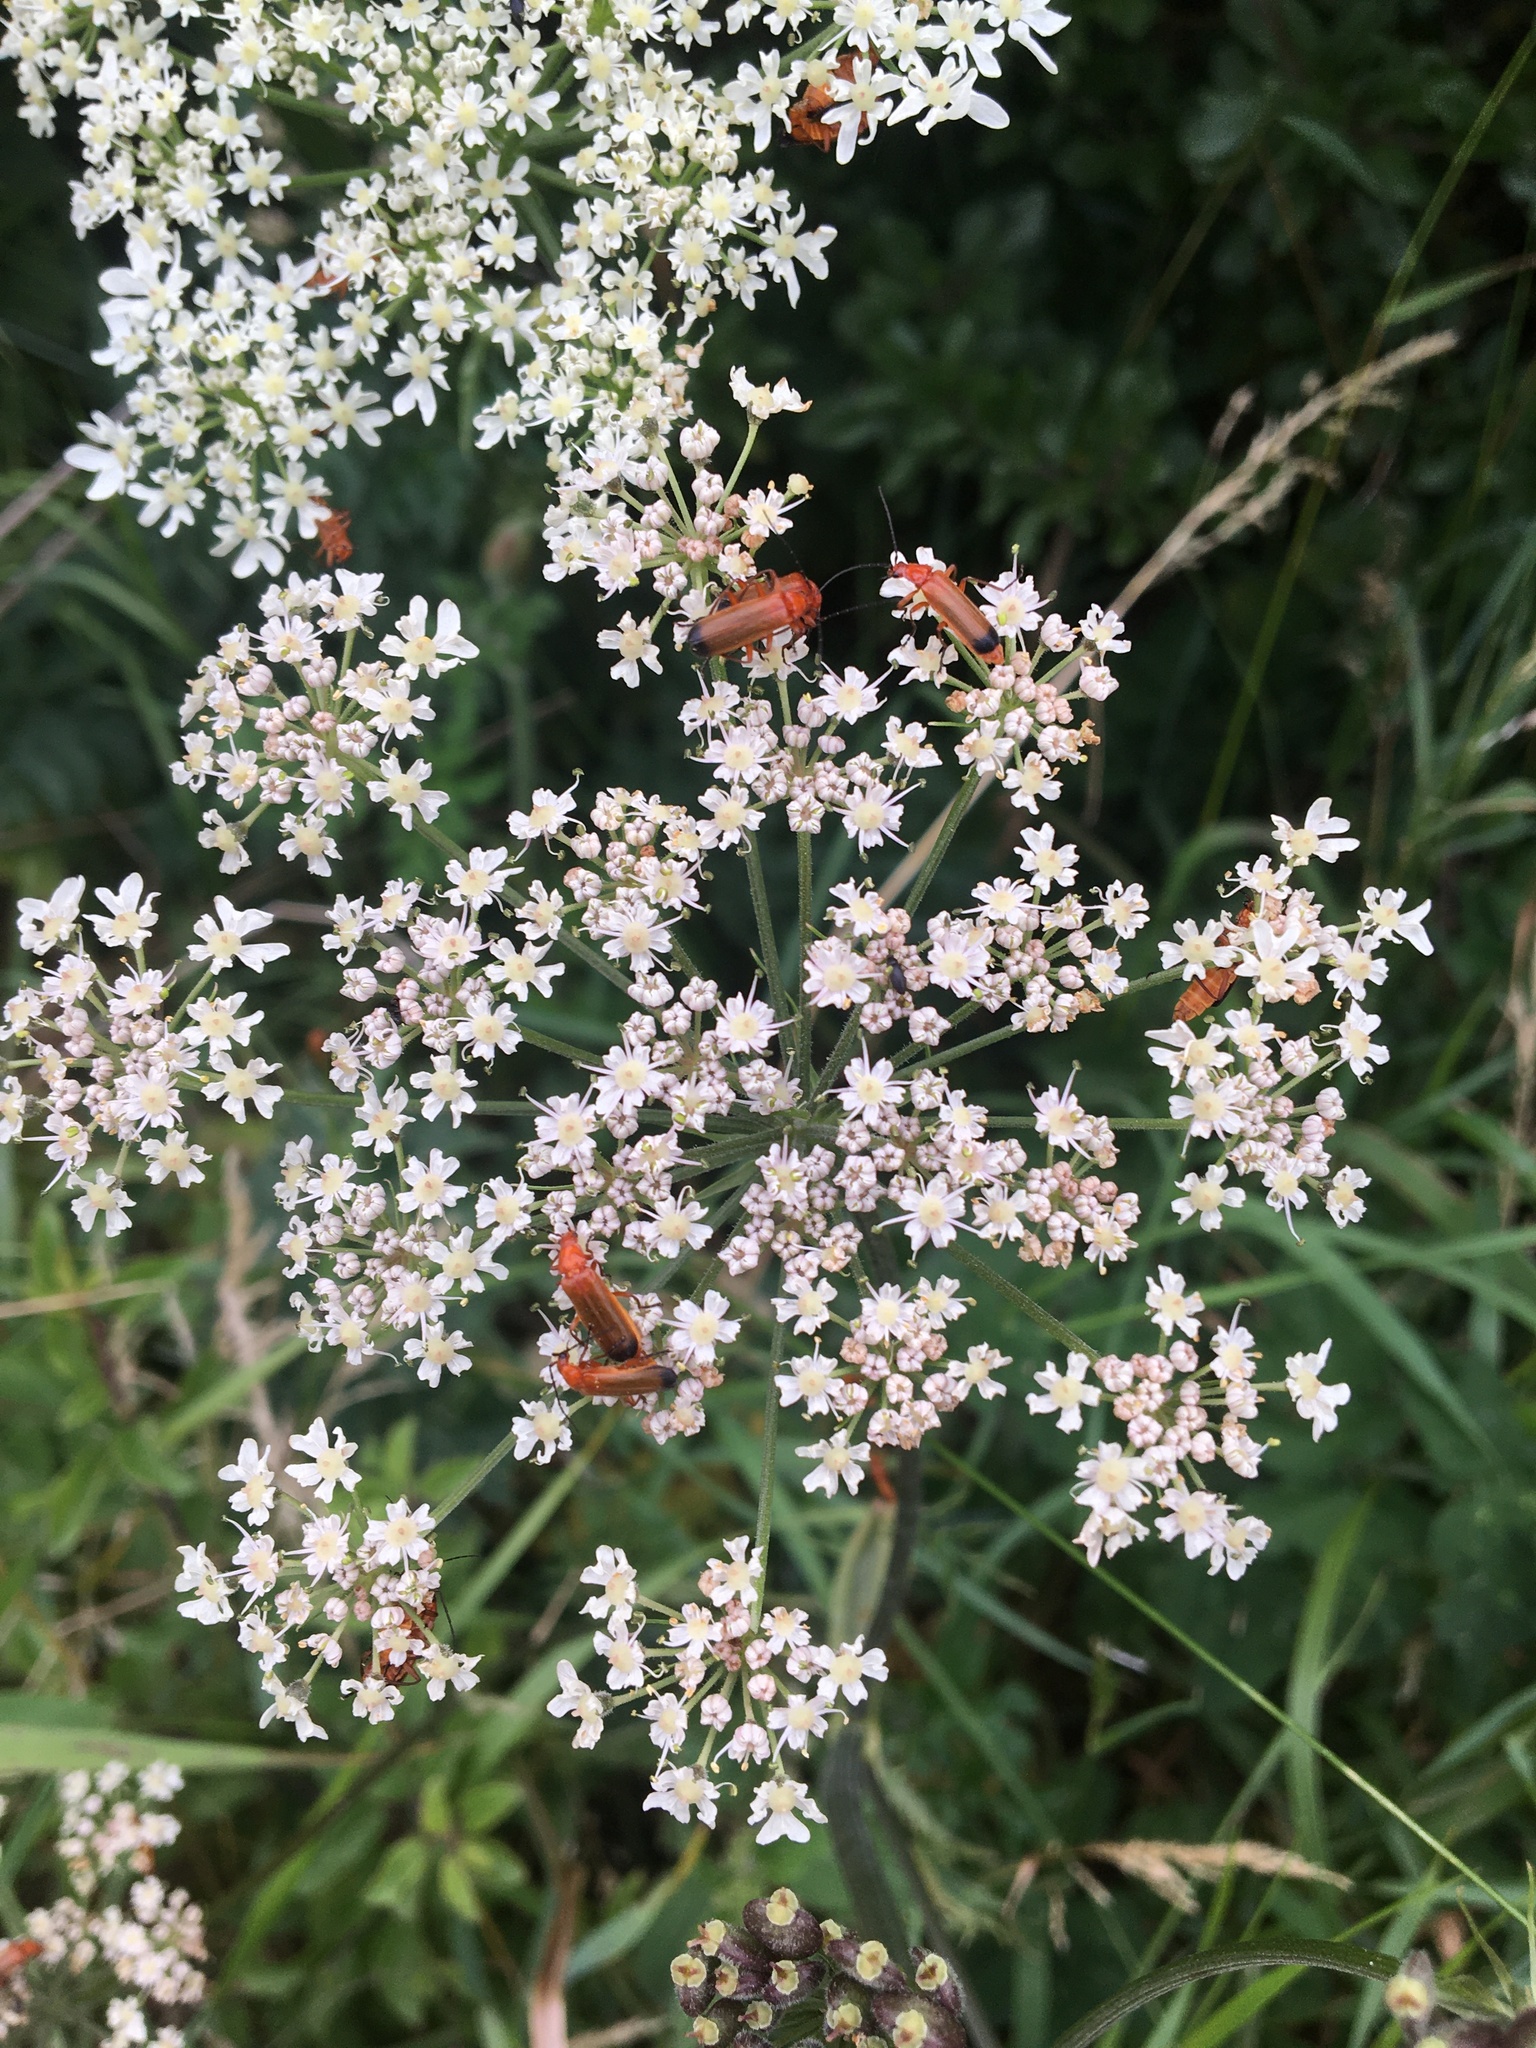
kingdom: Animalia
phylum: Arthropoda
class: Insecta
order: Coleoptera
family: Cantharidae
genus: Rhagonycha
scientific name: Rhagonycha fulva
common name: Common red soldier beetle
